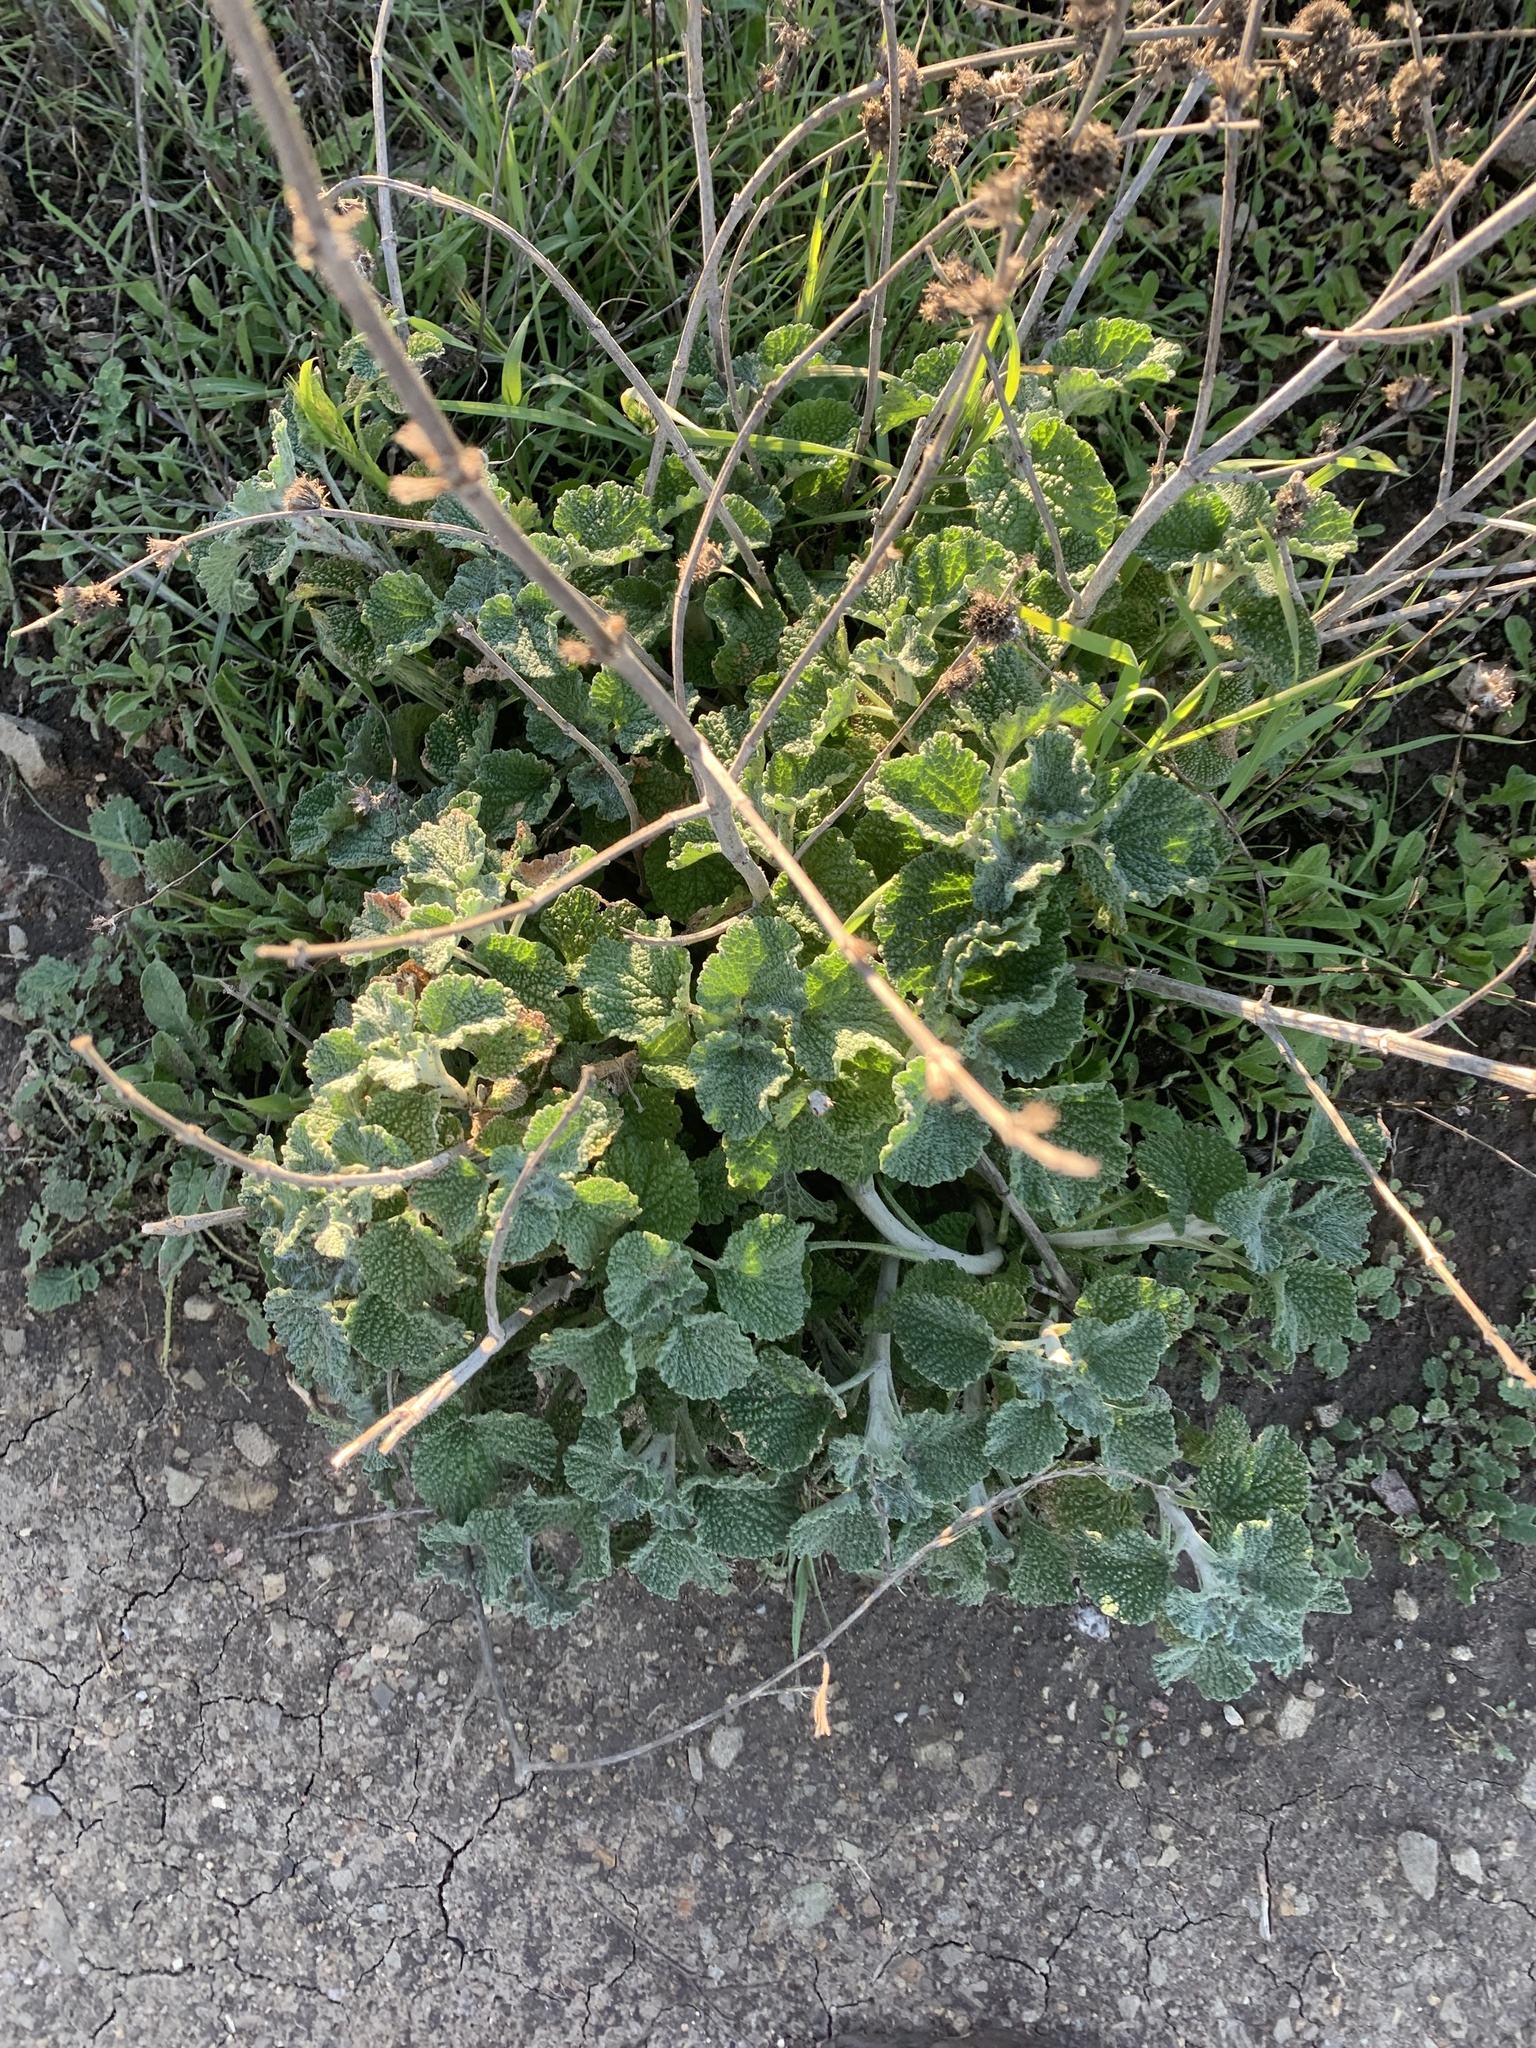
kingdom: Plantae
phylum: Tracheophyta
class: Magnoliopsida
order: Lamiales
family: Lamiaceae
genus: Marrubium
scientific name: Marrubium vulgare
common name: Horehound
